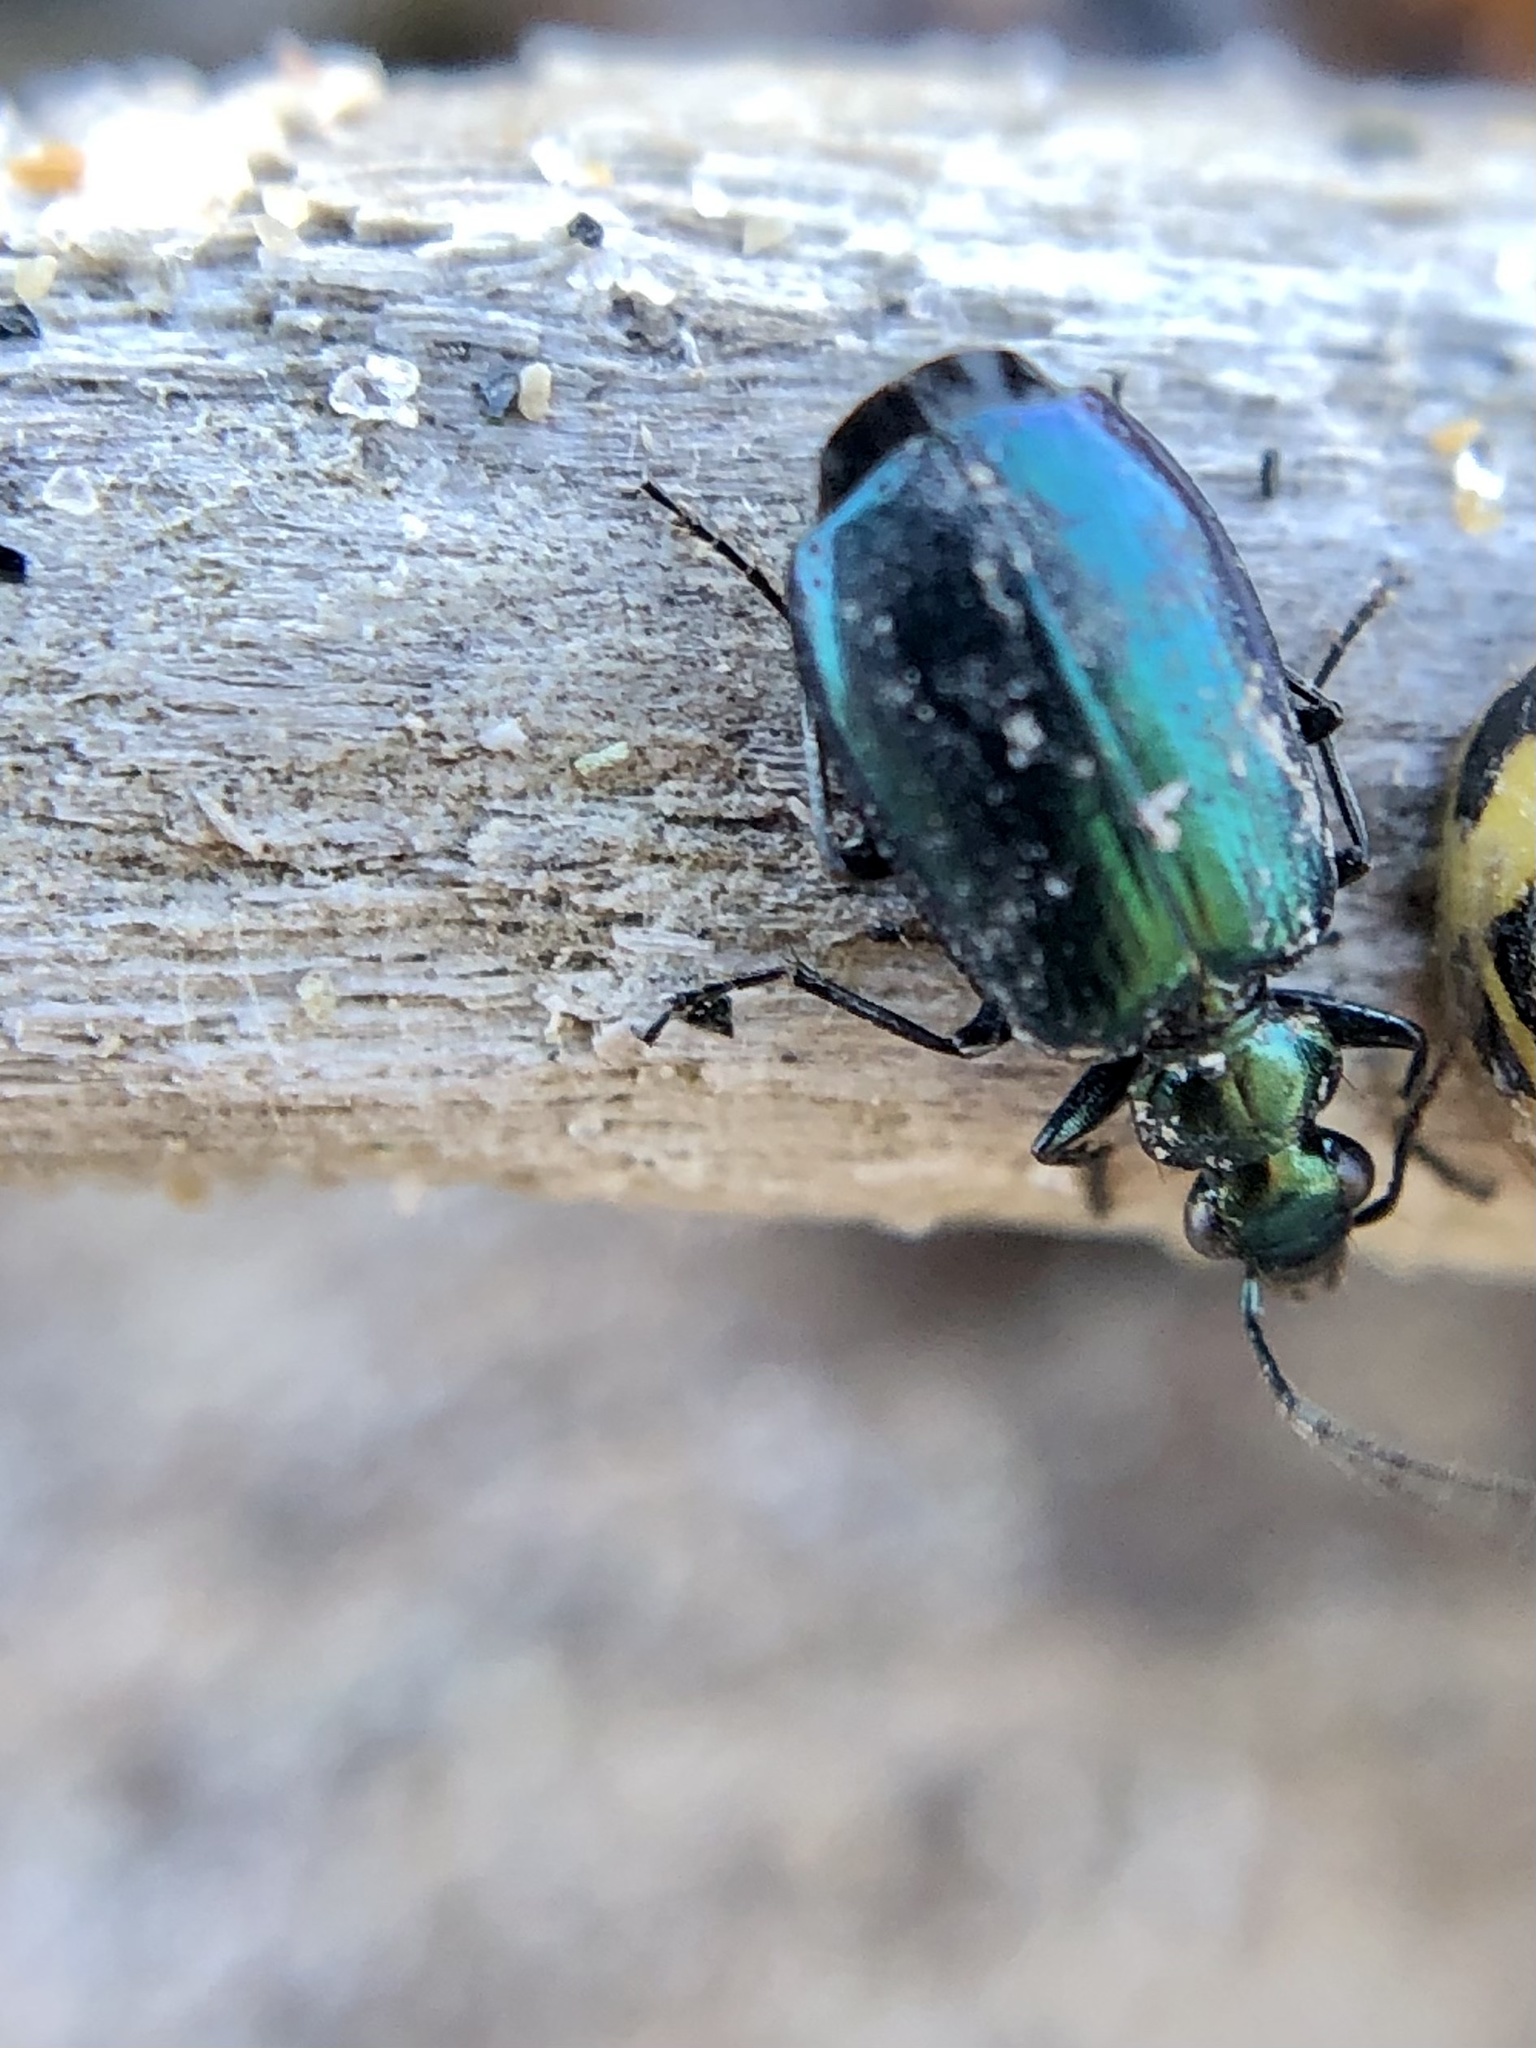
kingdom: Animalia
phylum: Arthropoda
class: Insecta
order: Coleoptera
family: Carabidae
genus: Lebia
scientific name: Lebia viridis
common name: Flower lebia beetle
